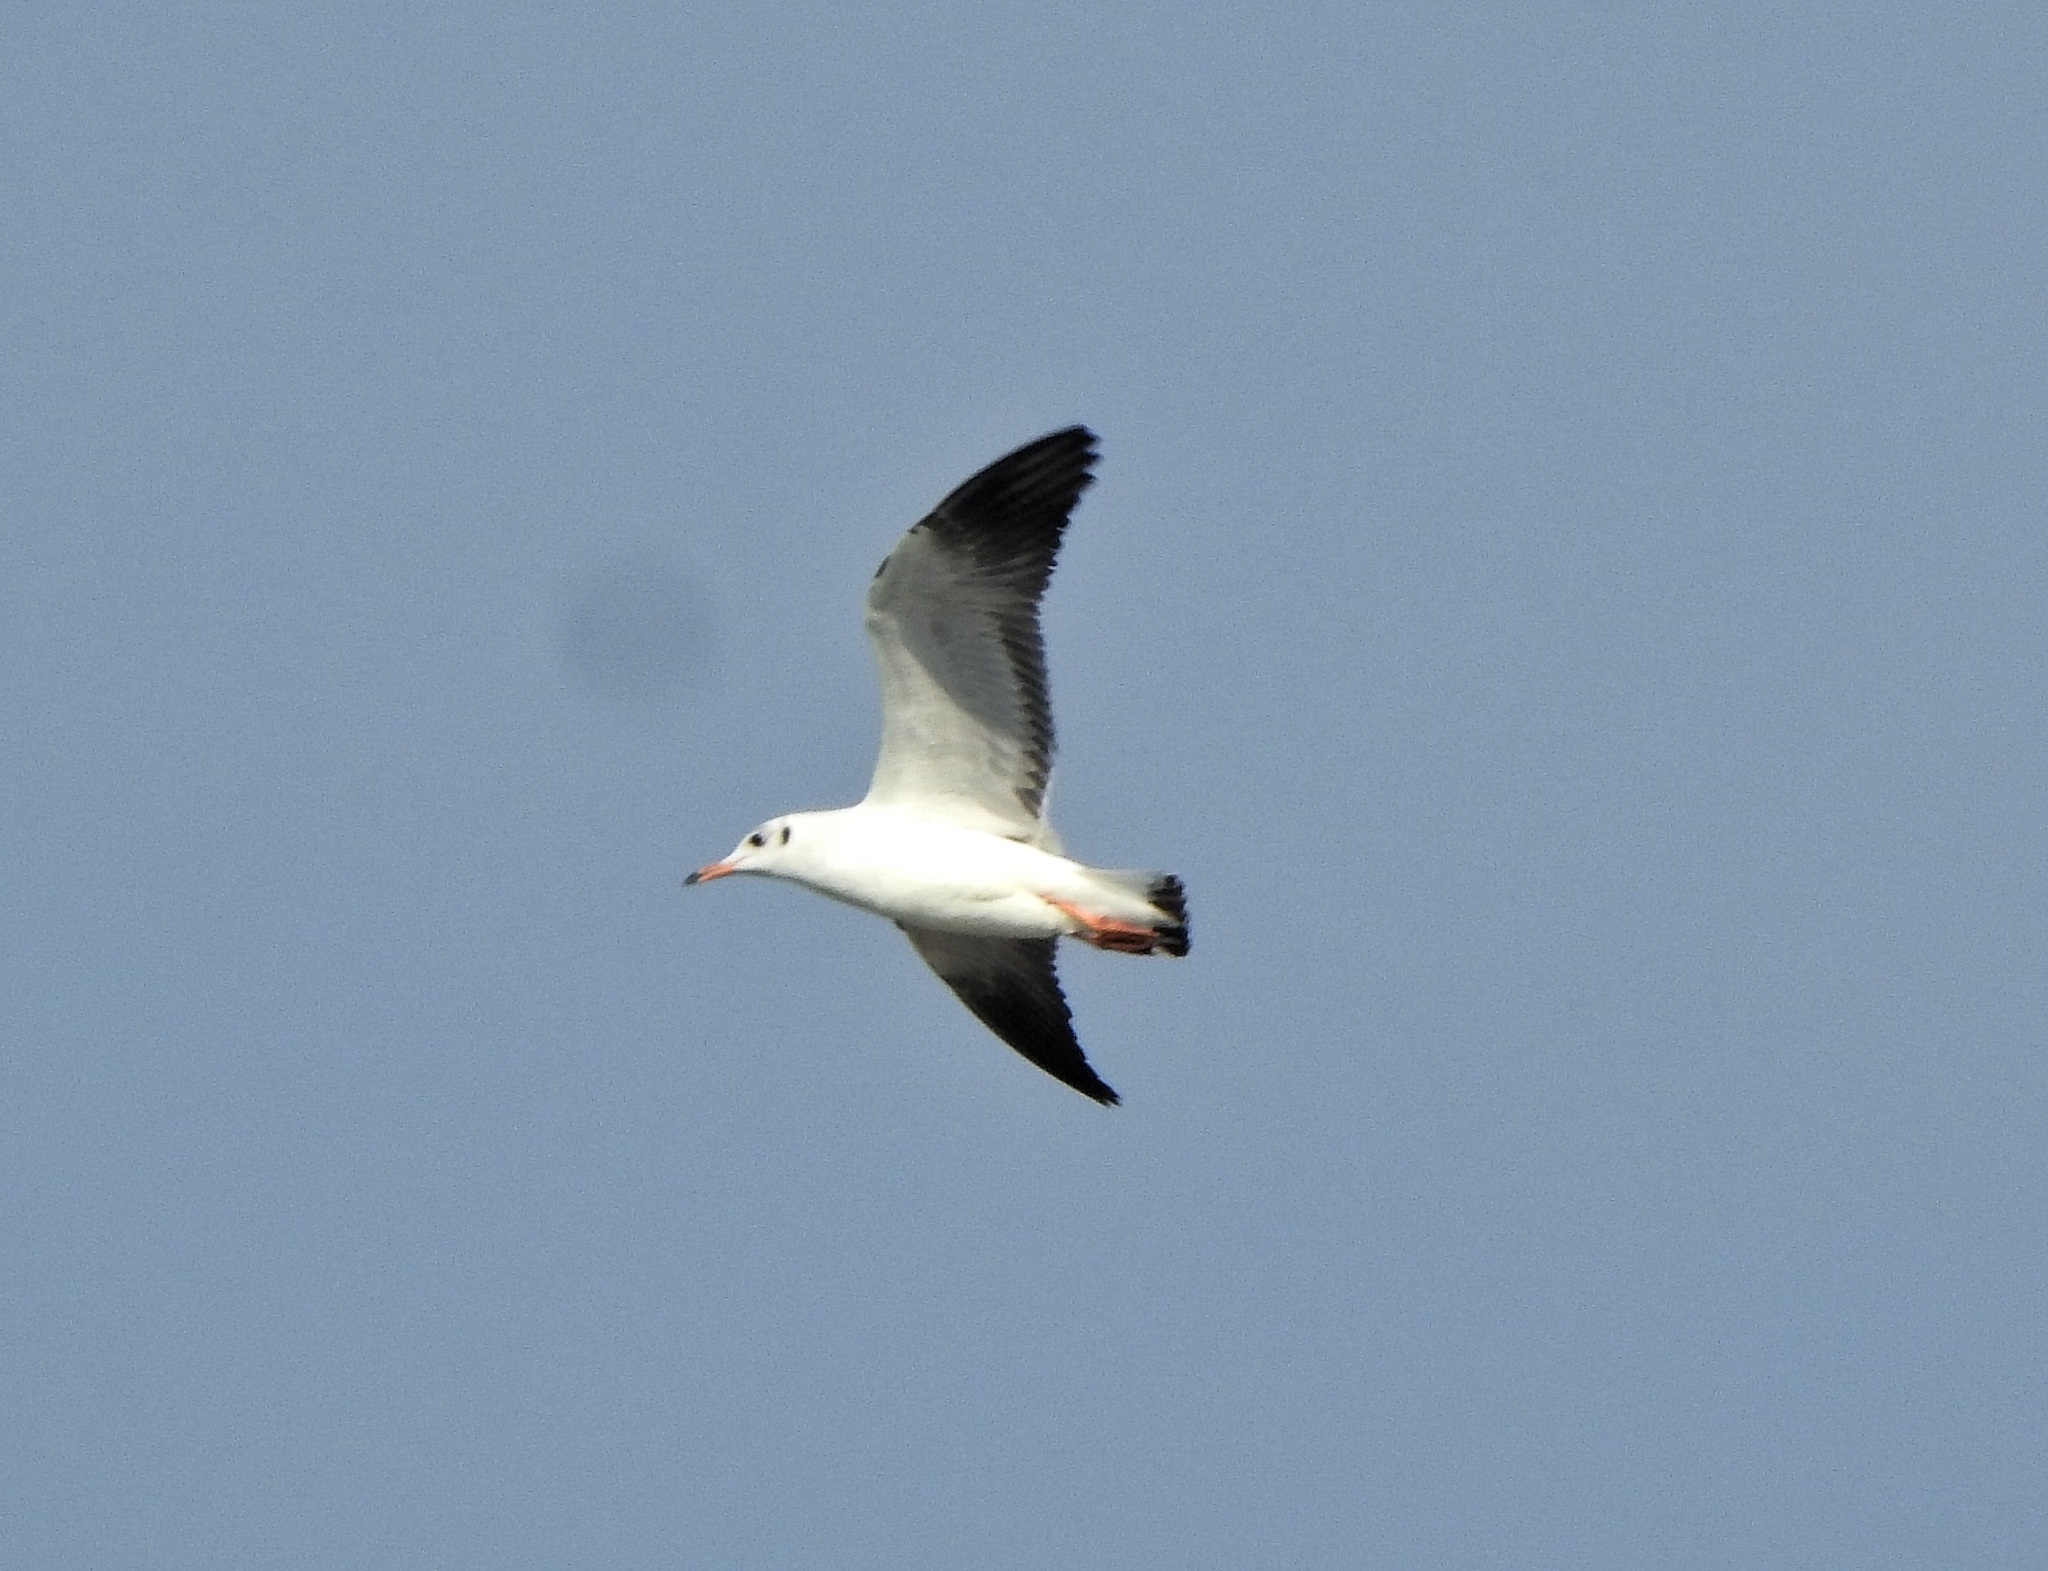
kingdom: Animalia
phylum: Chordata
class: Aves
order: Charadriiformes
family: Laridae
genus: Chroicocephalus
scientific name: Chroicocephalus brunnicephalus
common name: Brown-headed gull
